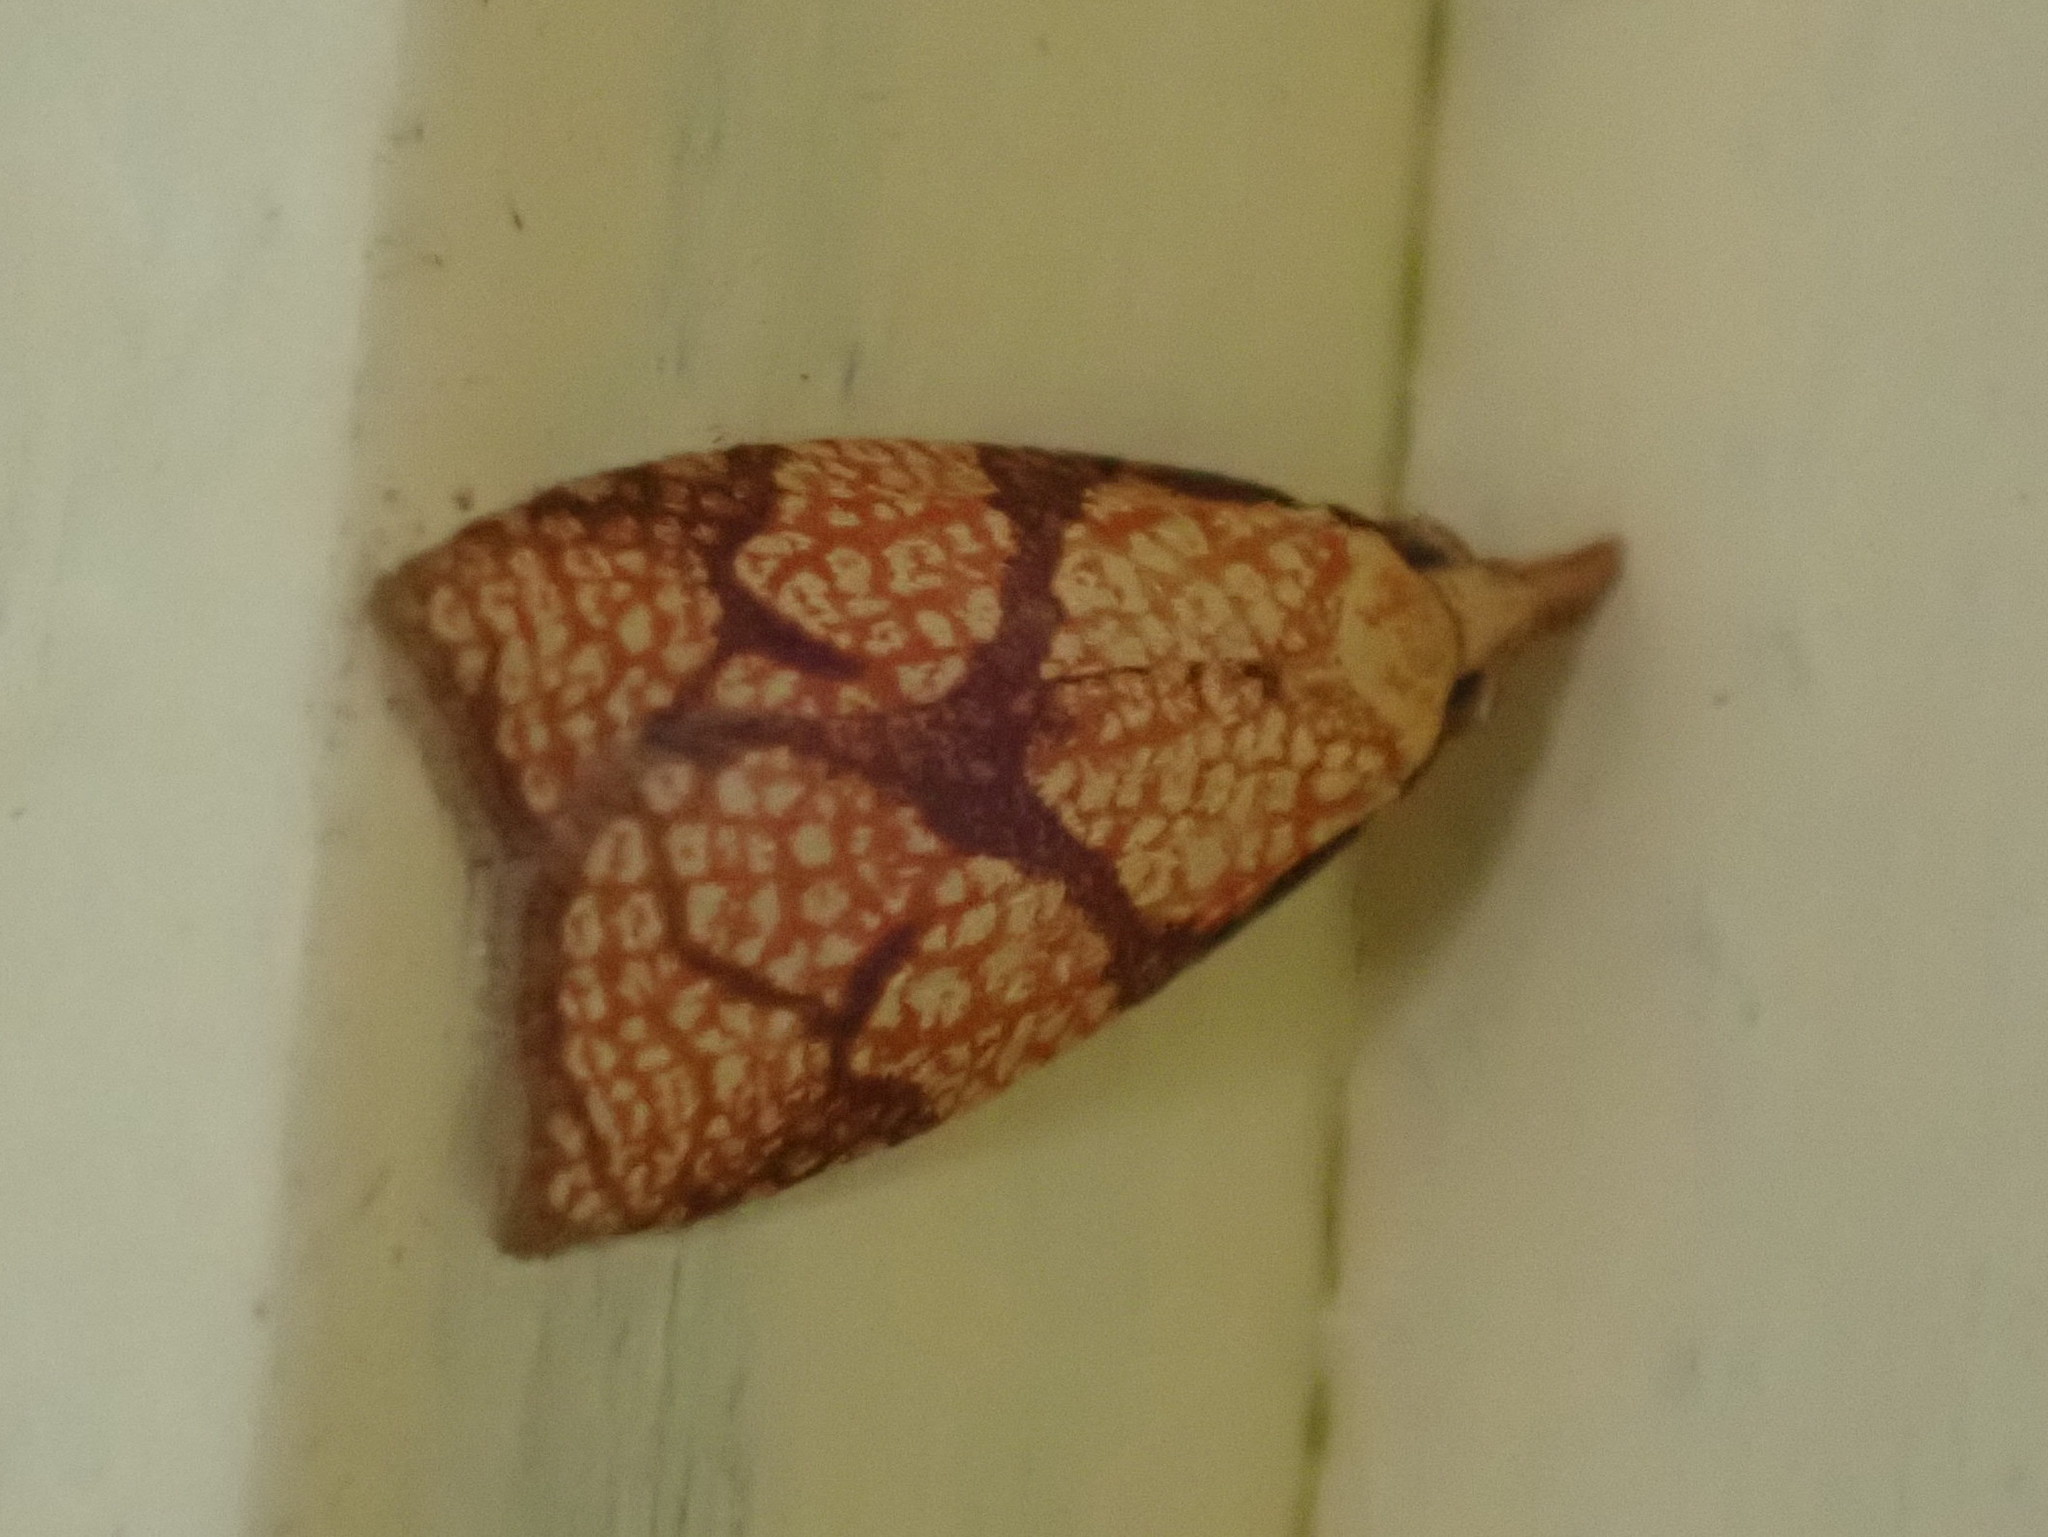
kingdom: Animalia
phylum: Arthropoda
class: Insecta
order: Lepidoptera
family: Tortricidae
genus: Cenopis
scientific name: Cenopis reticulatana
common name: Reticulated fruitworm moth
